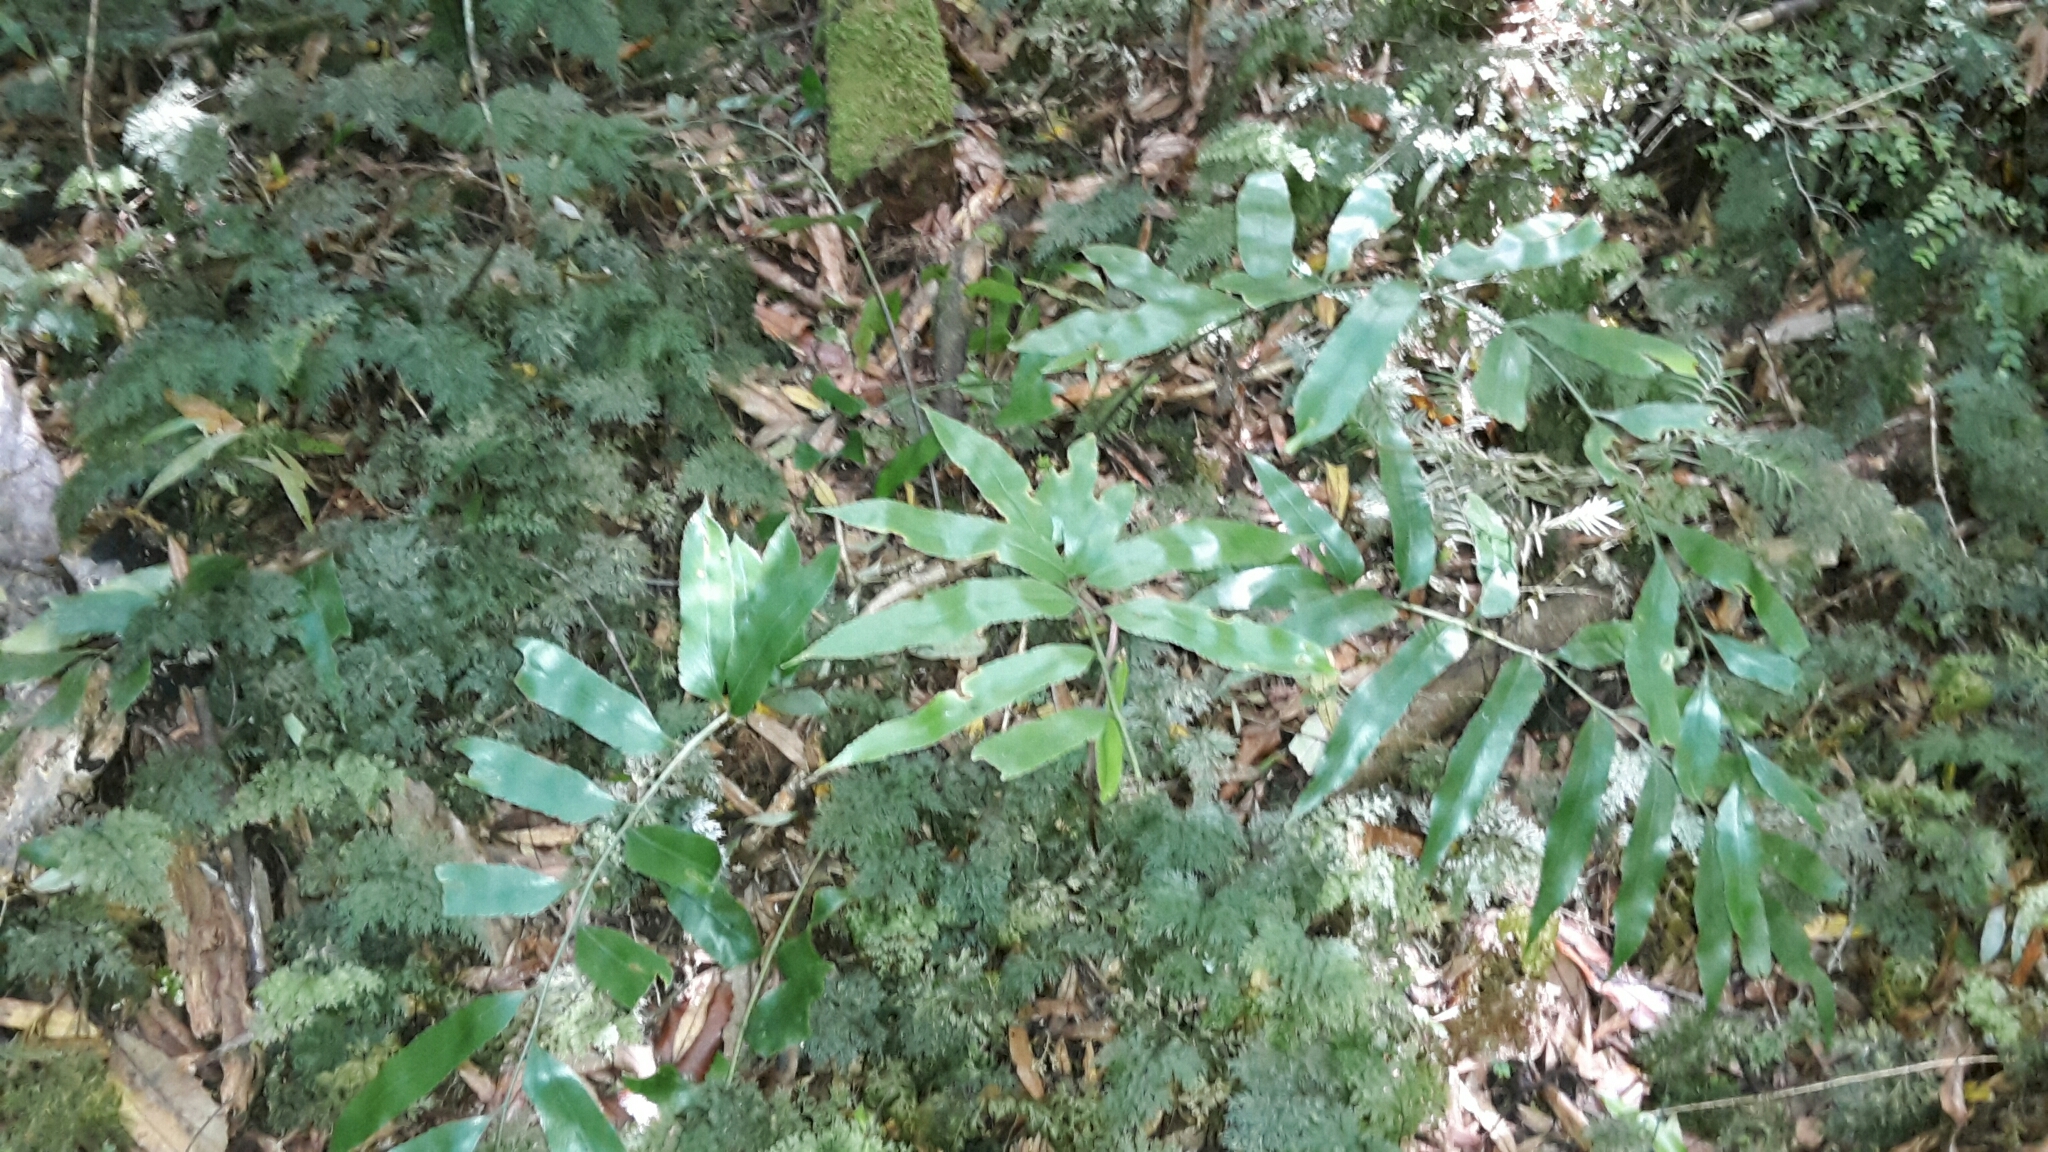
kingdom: Plantae
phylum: Tracheophyta
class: Polypodiopsida
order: Polypodiales
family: Aspleniaceae
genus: Asplenium
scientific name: Asplenium oblongifolium
